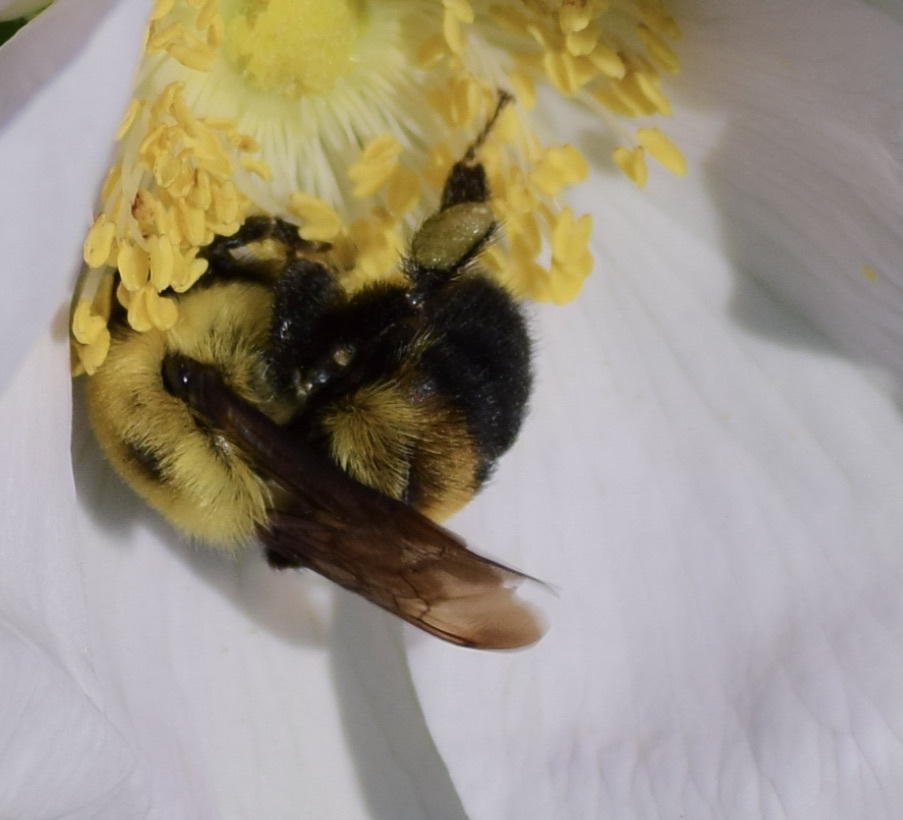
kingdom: Animalia
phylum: Arthropoda
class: Insecta
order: Hymenoptera
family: Apidae
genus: Bombus
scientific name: Bombus griseocollis
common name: Brown-belted bumble bee
